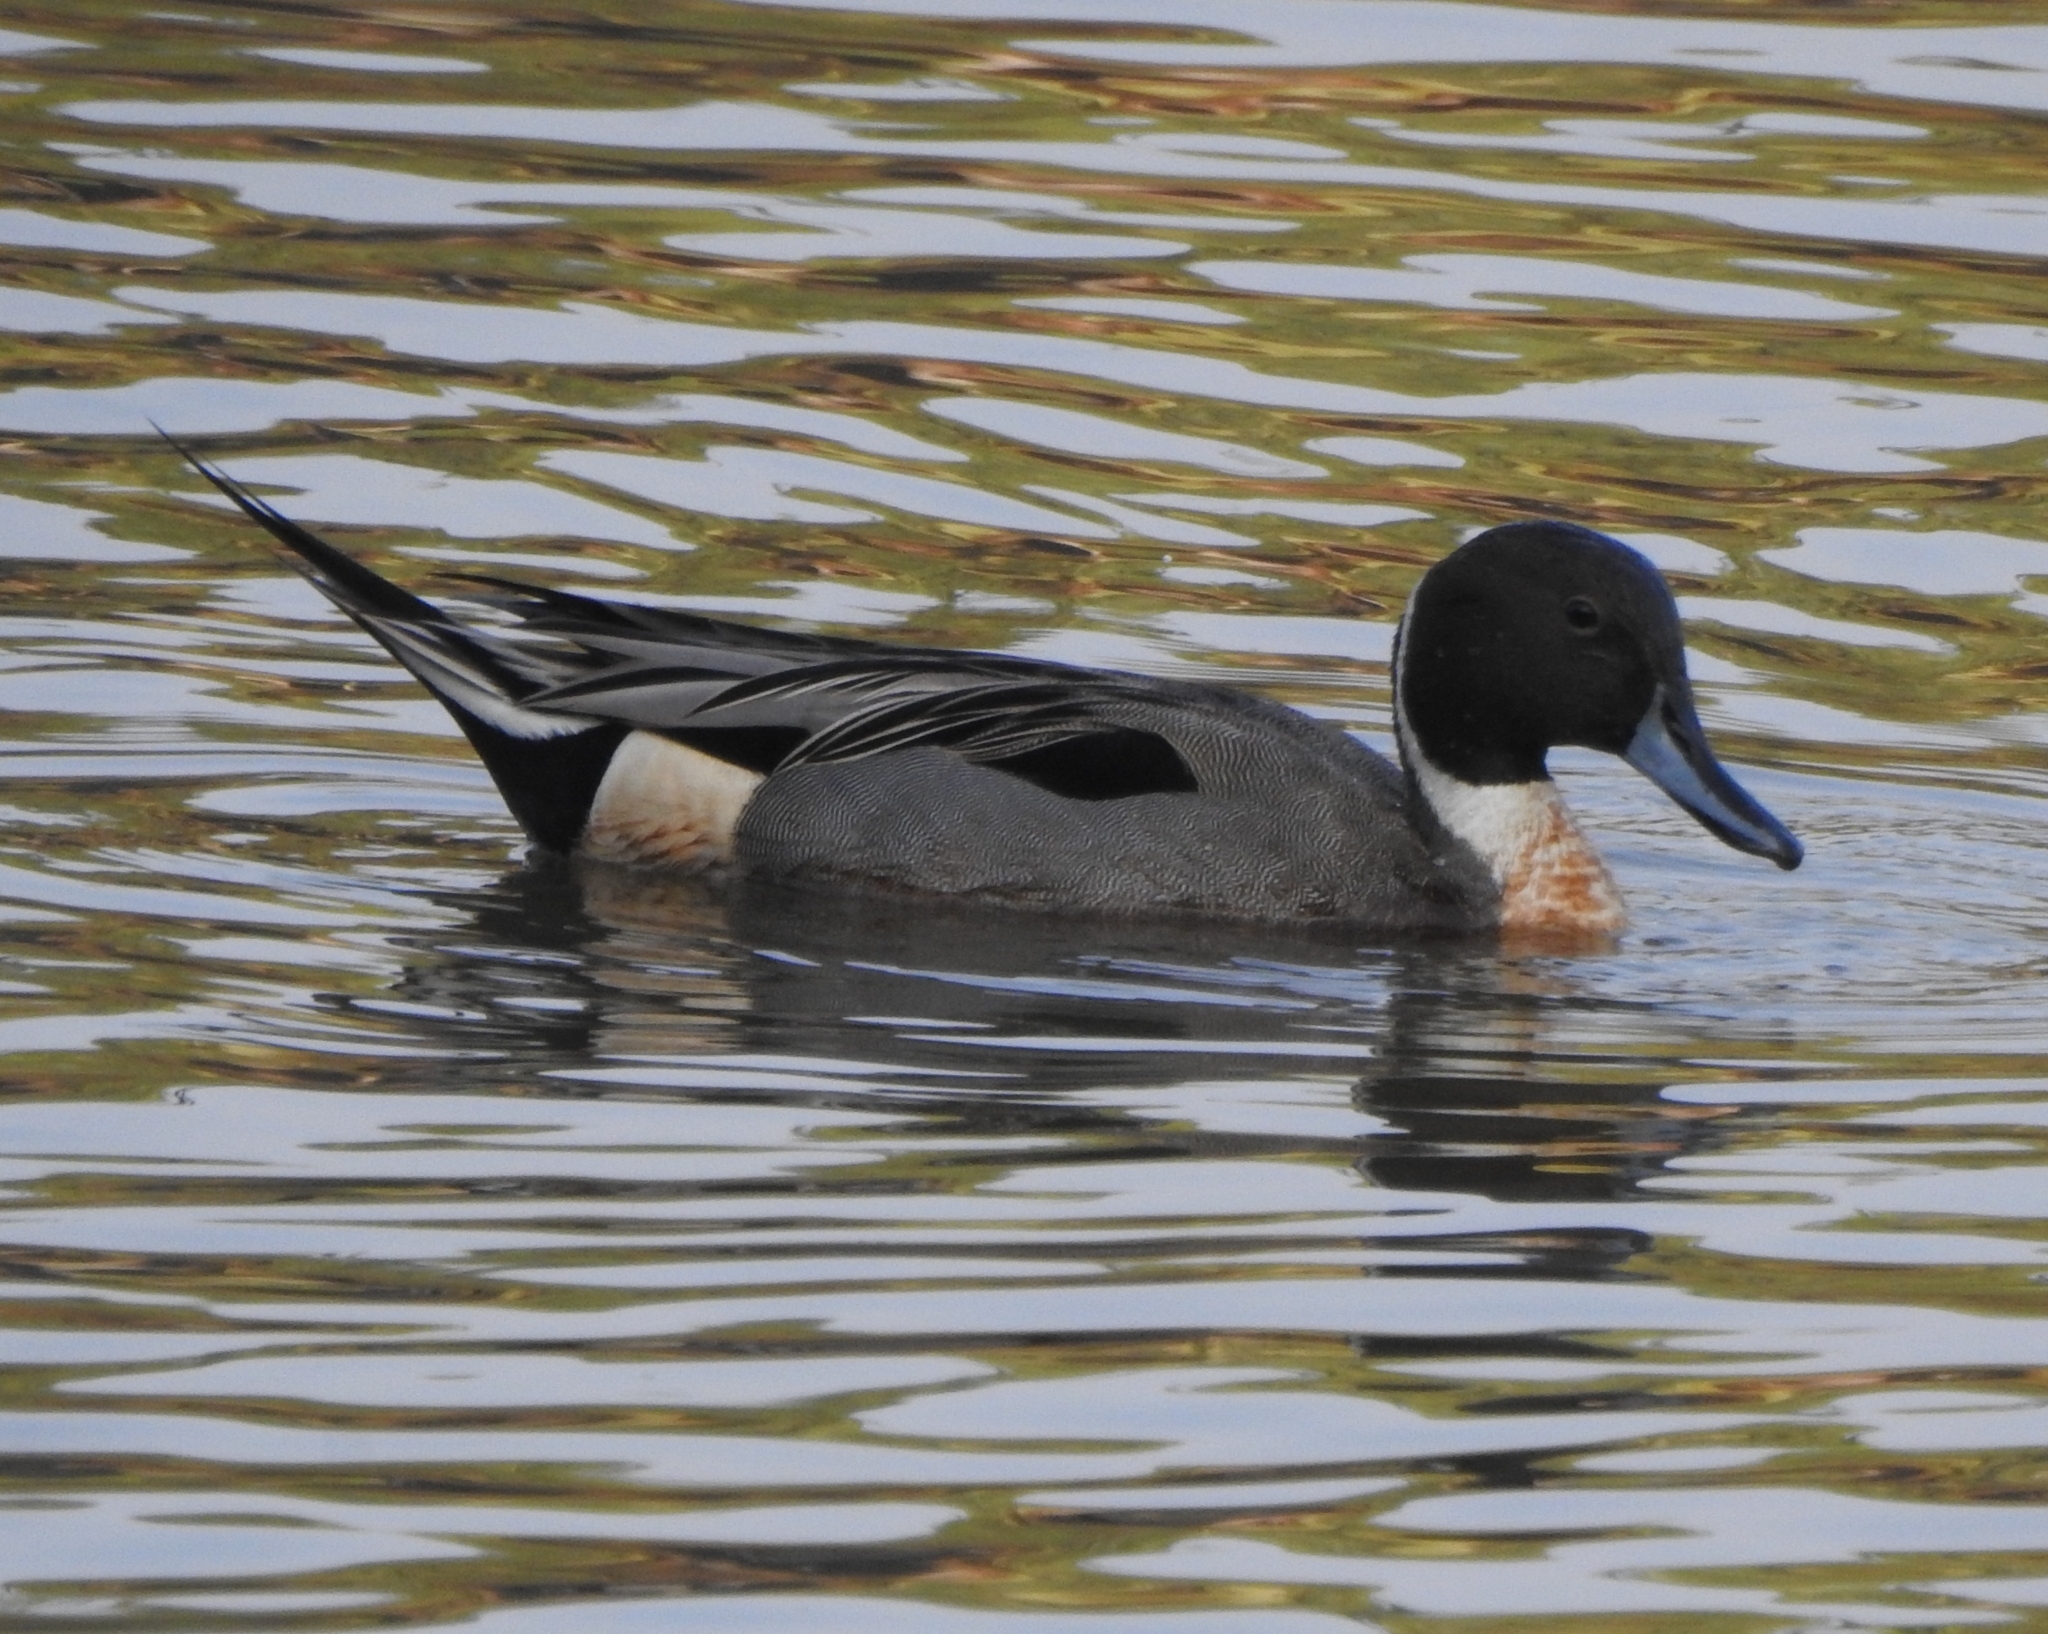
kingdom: Animalia
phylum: Chordata
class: Aves
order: Anseriformes
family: Anatidae
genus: Anas
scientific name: Anas acuta
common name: Northern pintail
